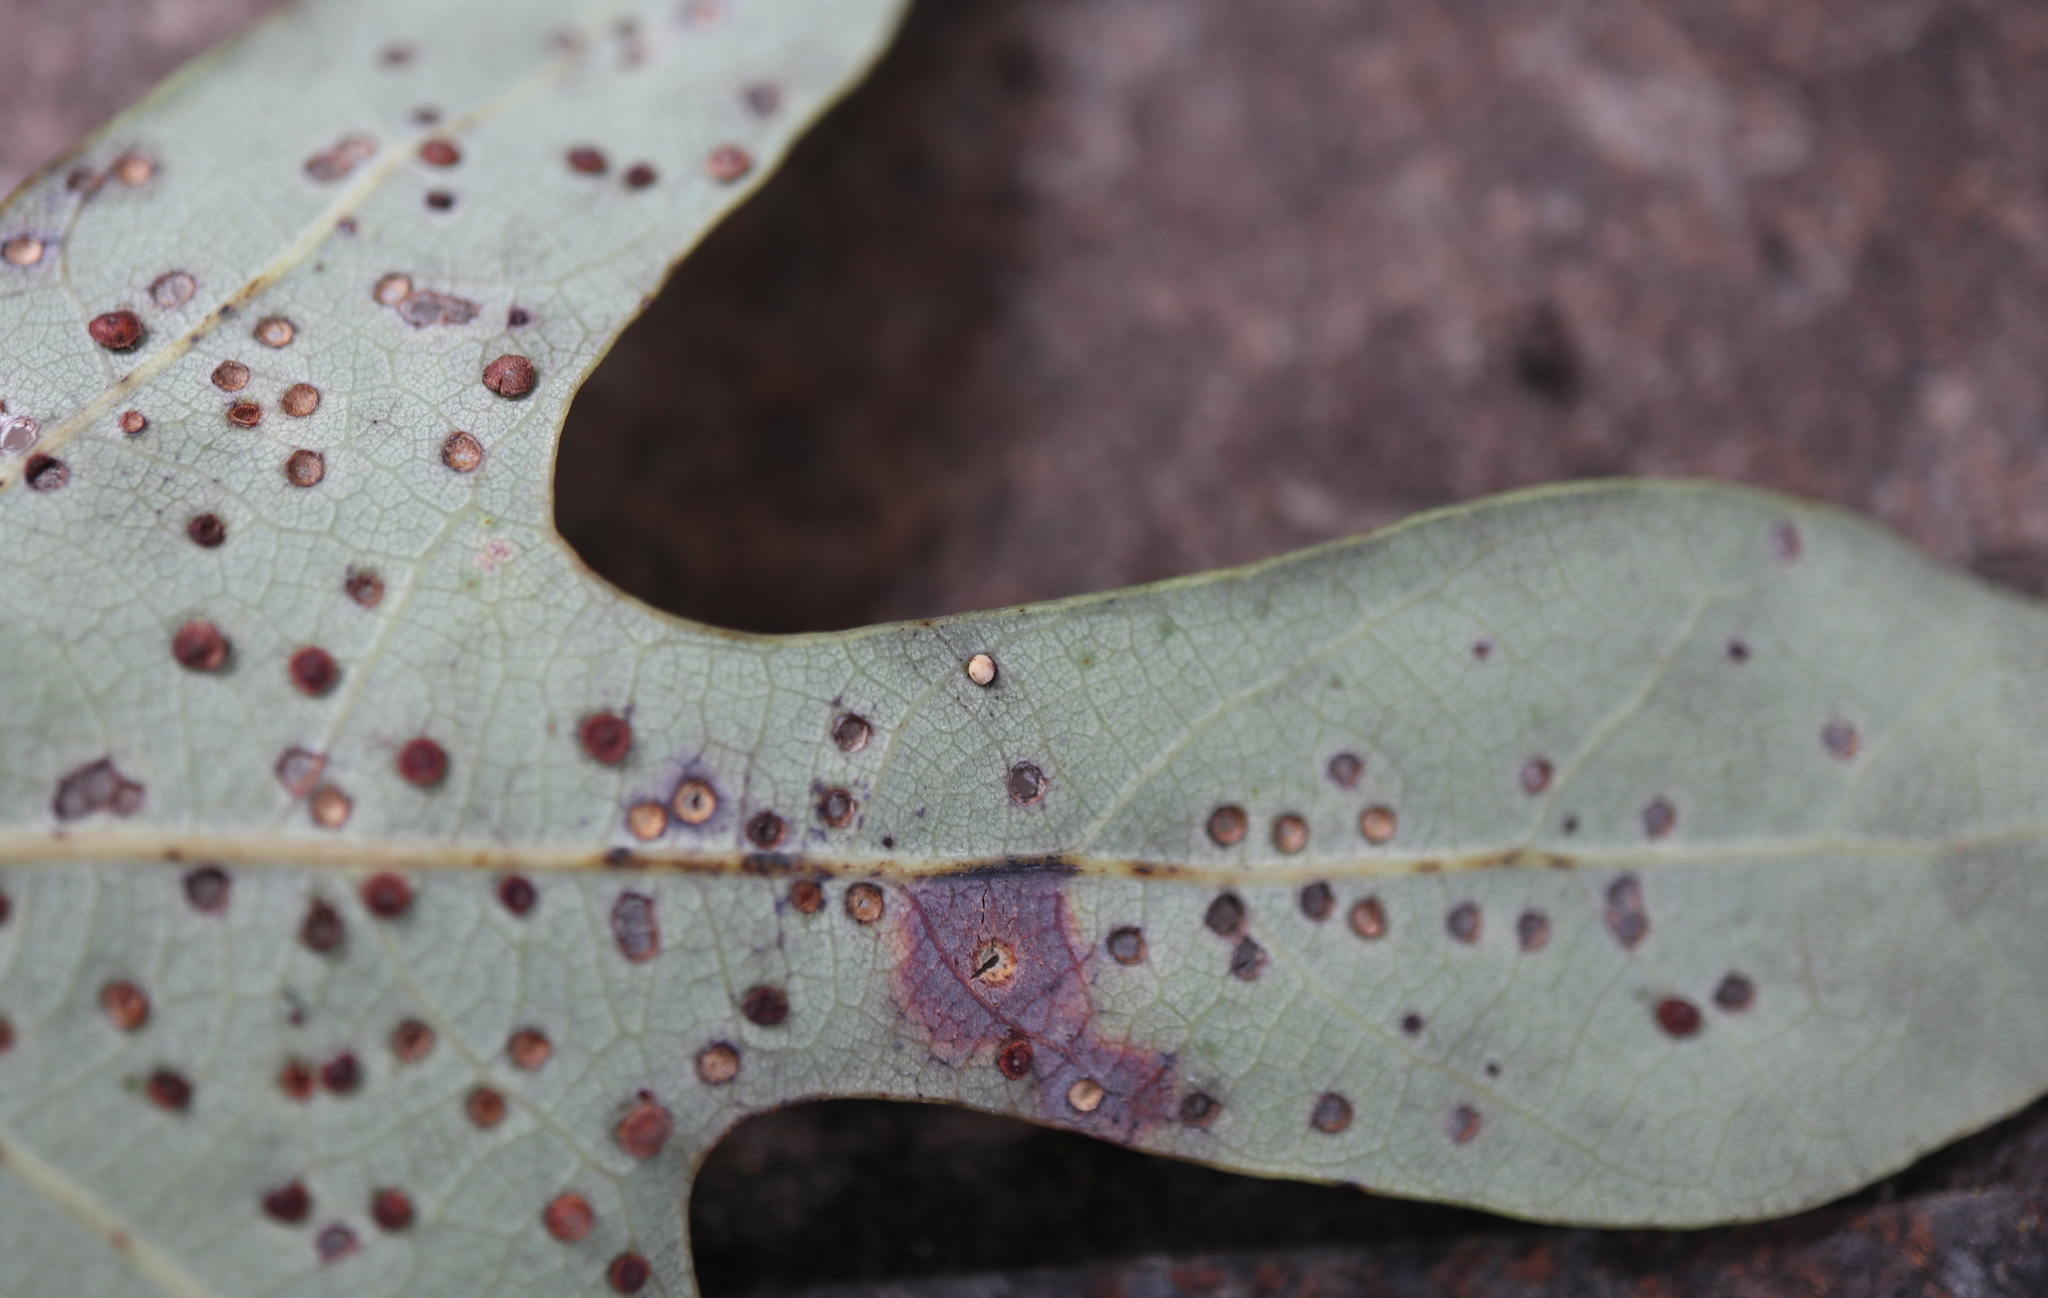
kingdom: Animalia
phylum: Arthropoda
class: Insecta
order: Hymenoptera
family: Cynipidae
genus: Neuroterus
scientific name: Neuroterus
